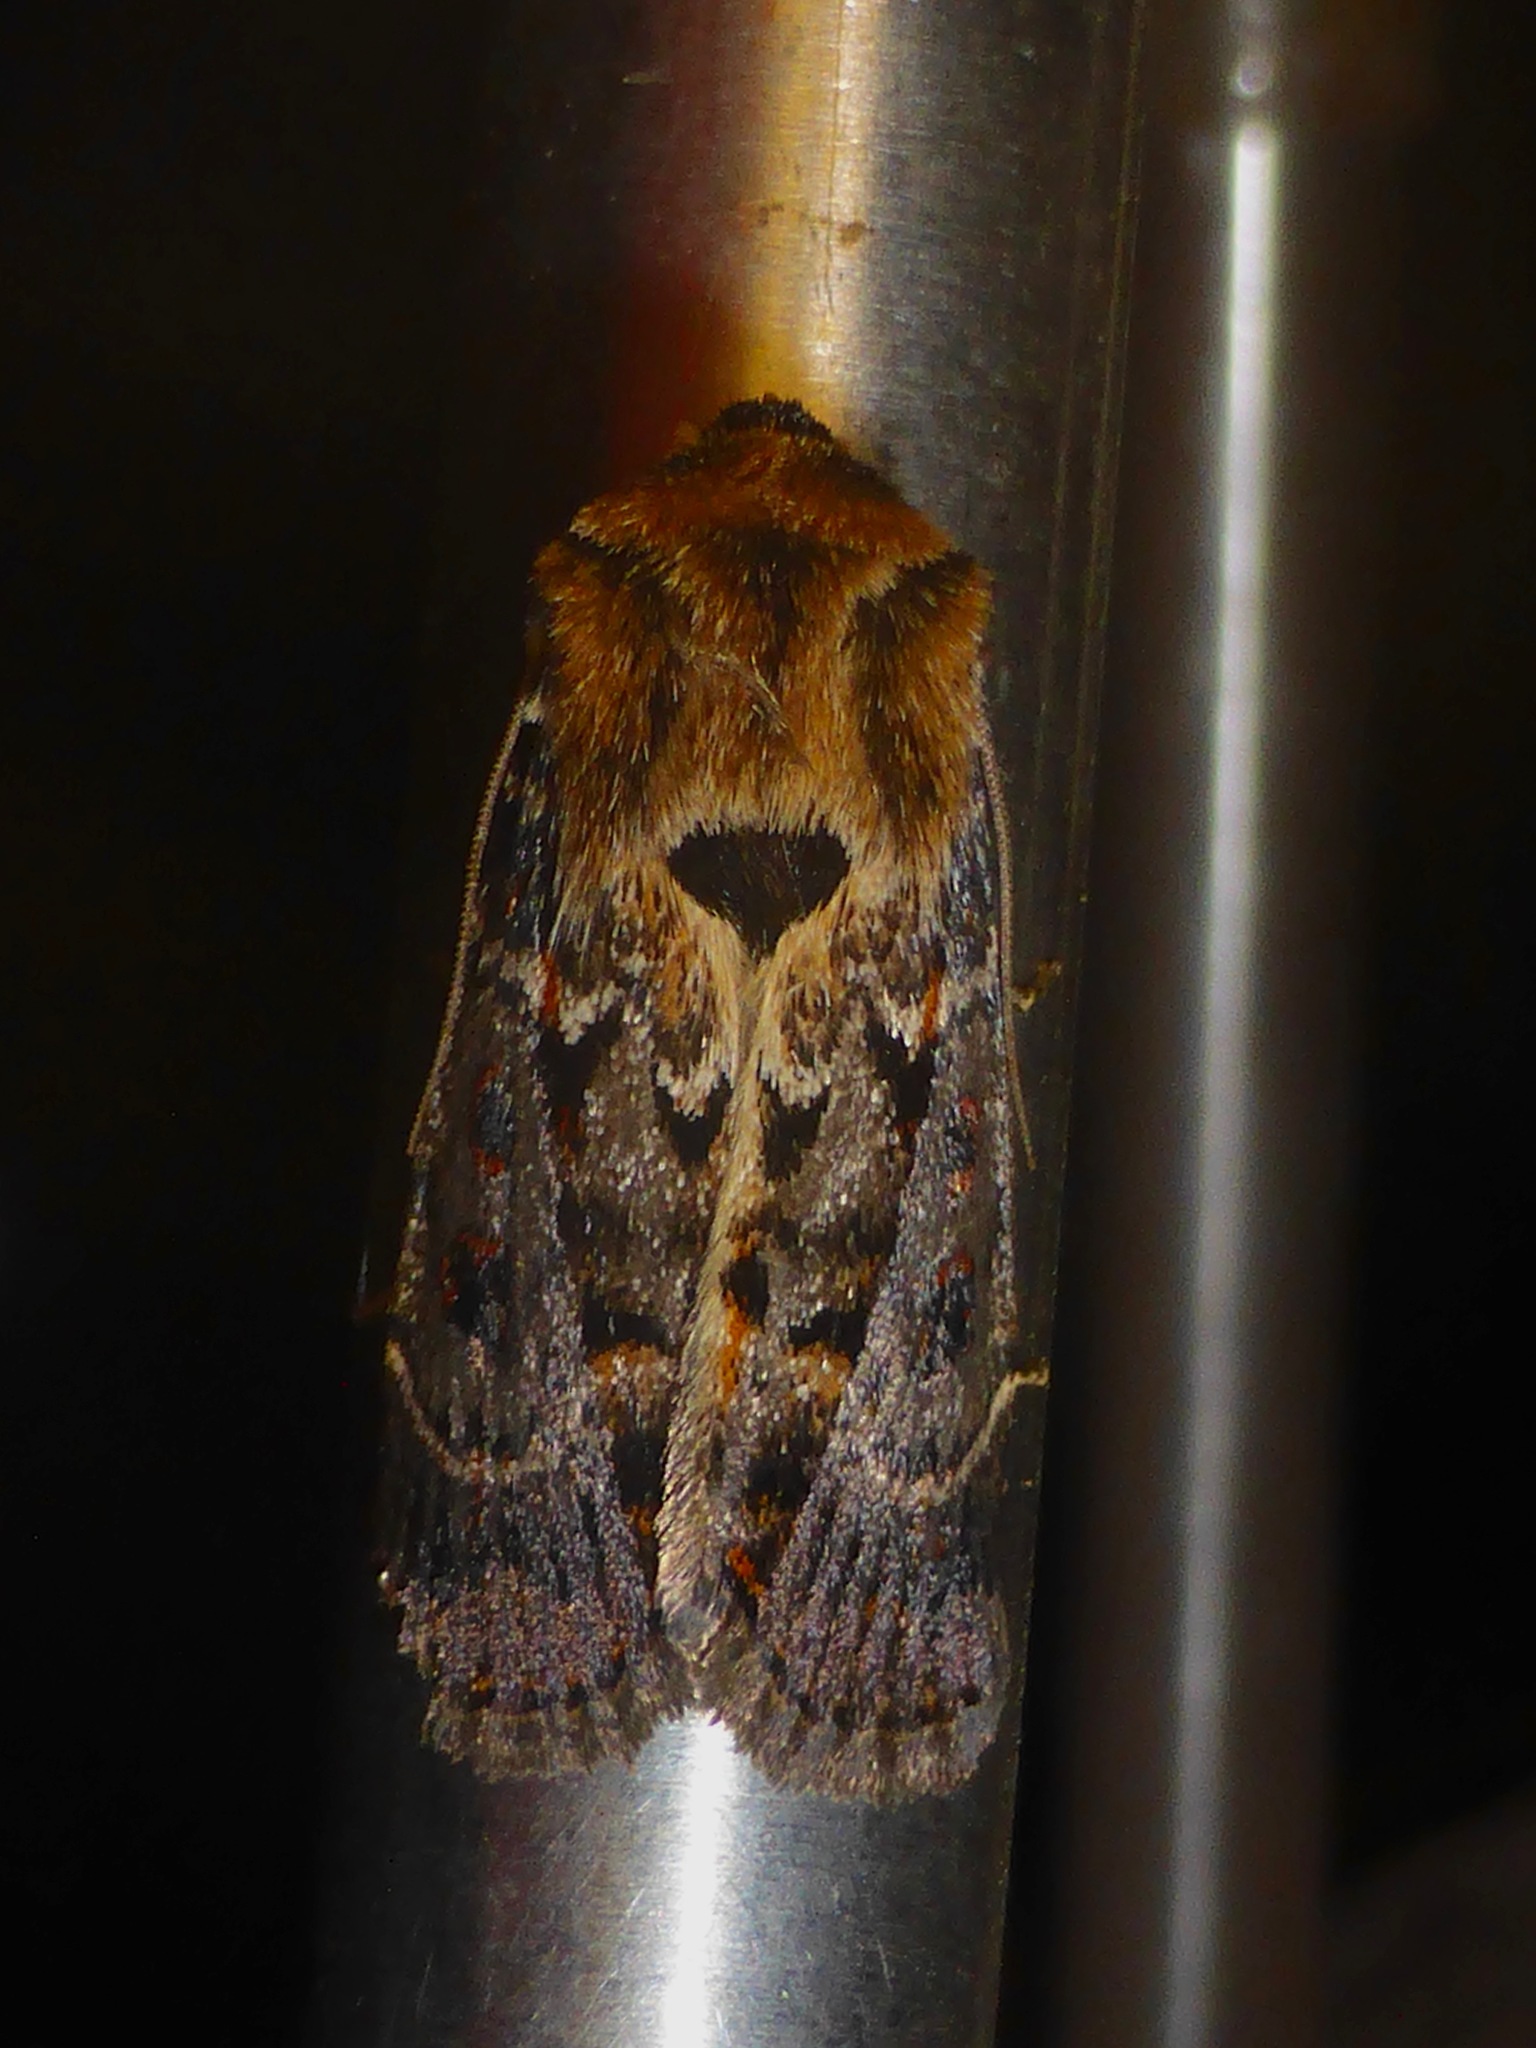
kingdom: Animalia
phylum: Arthropoda
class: Insecta
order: Lepidoptera
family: Noctuidae
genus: Proteuxoa
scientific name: Proteuxoa sanguinipuncta
